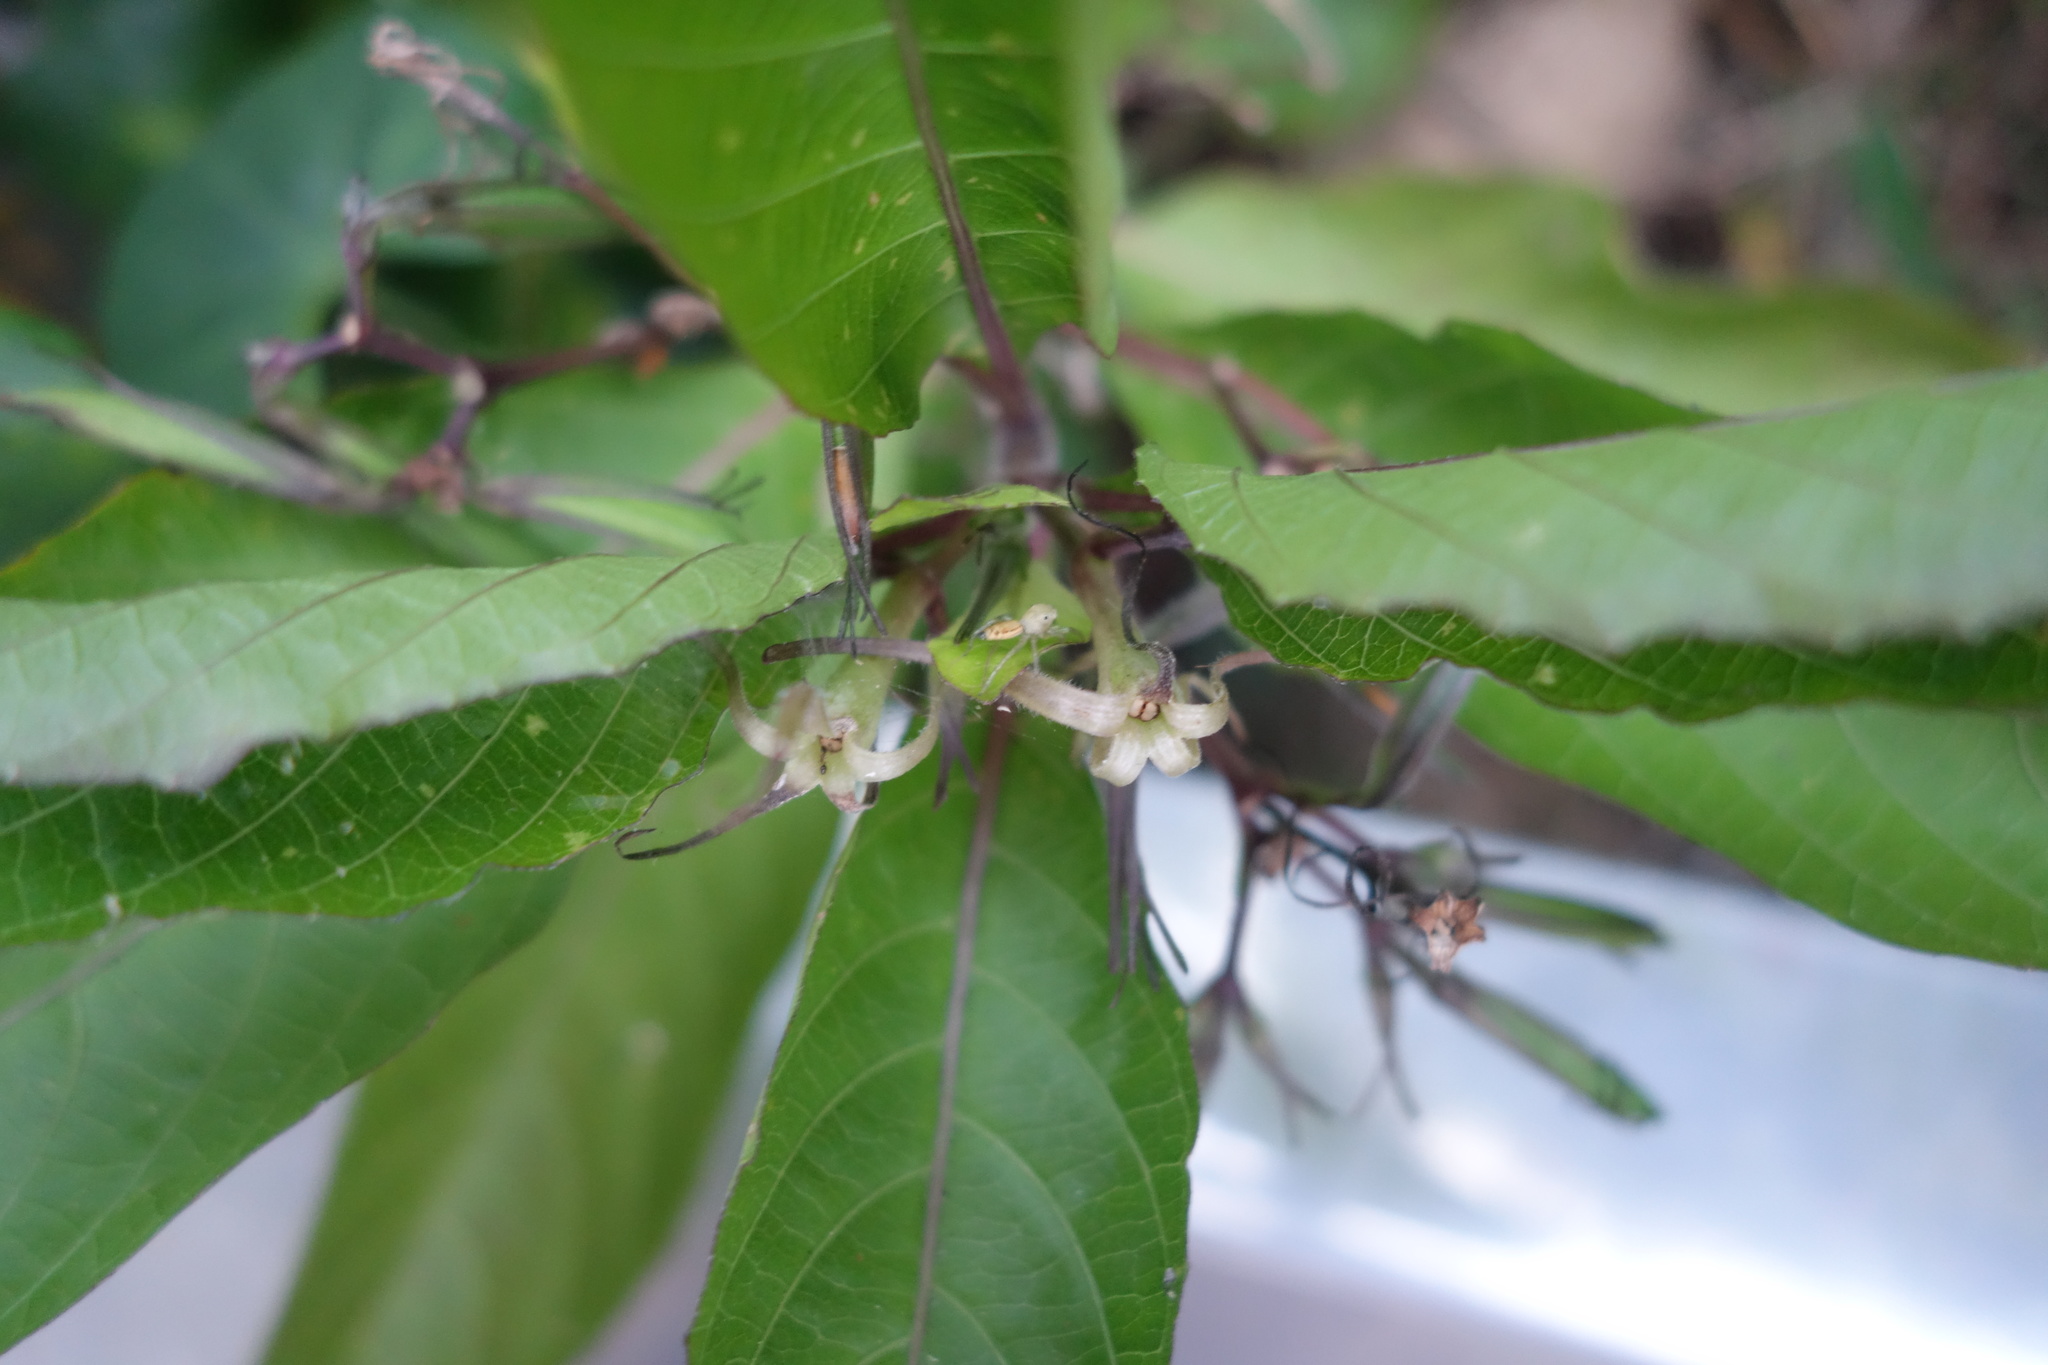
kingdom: Plantae
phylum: Tracheophyta
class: Magnoliopsida
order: Lamiales
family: Acanthaceae
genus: Ruellia
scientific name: Ruellia tuberosa
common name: Devil's bit
